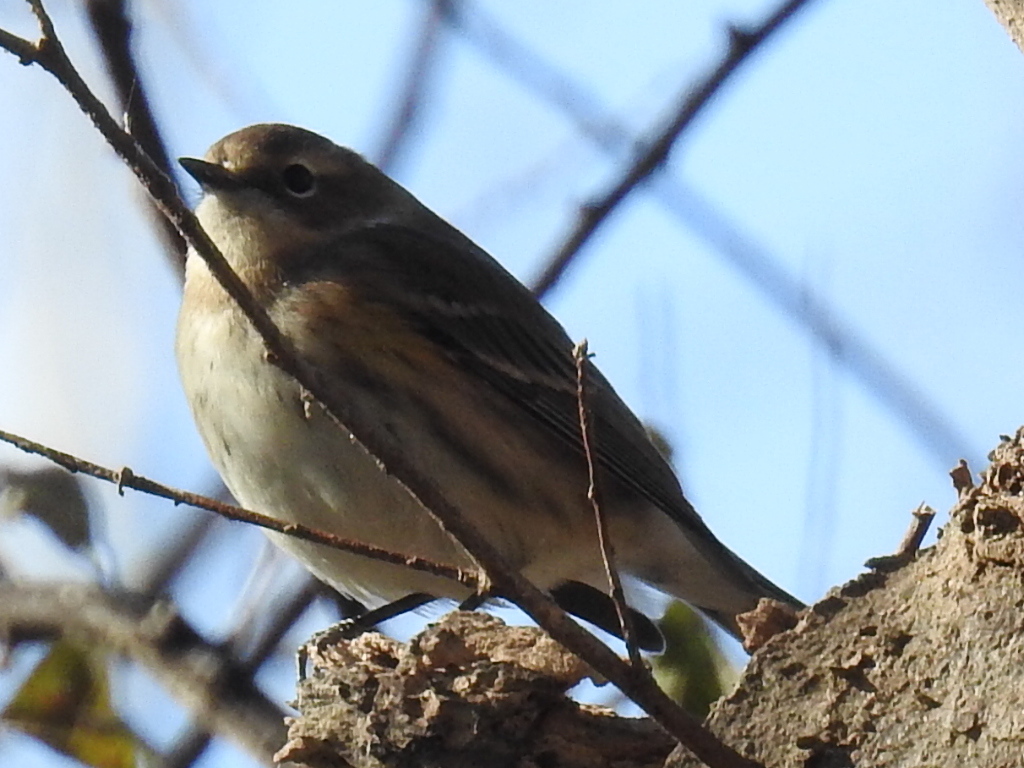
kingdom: Animalia
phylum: Chordata
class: Aves
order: Passeriformes
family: Parulidae
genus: Setophaga
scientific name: Setophaga coronata
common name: Myrtle warbler
